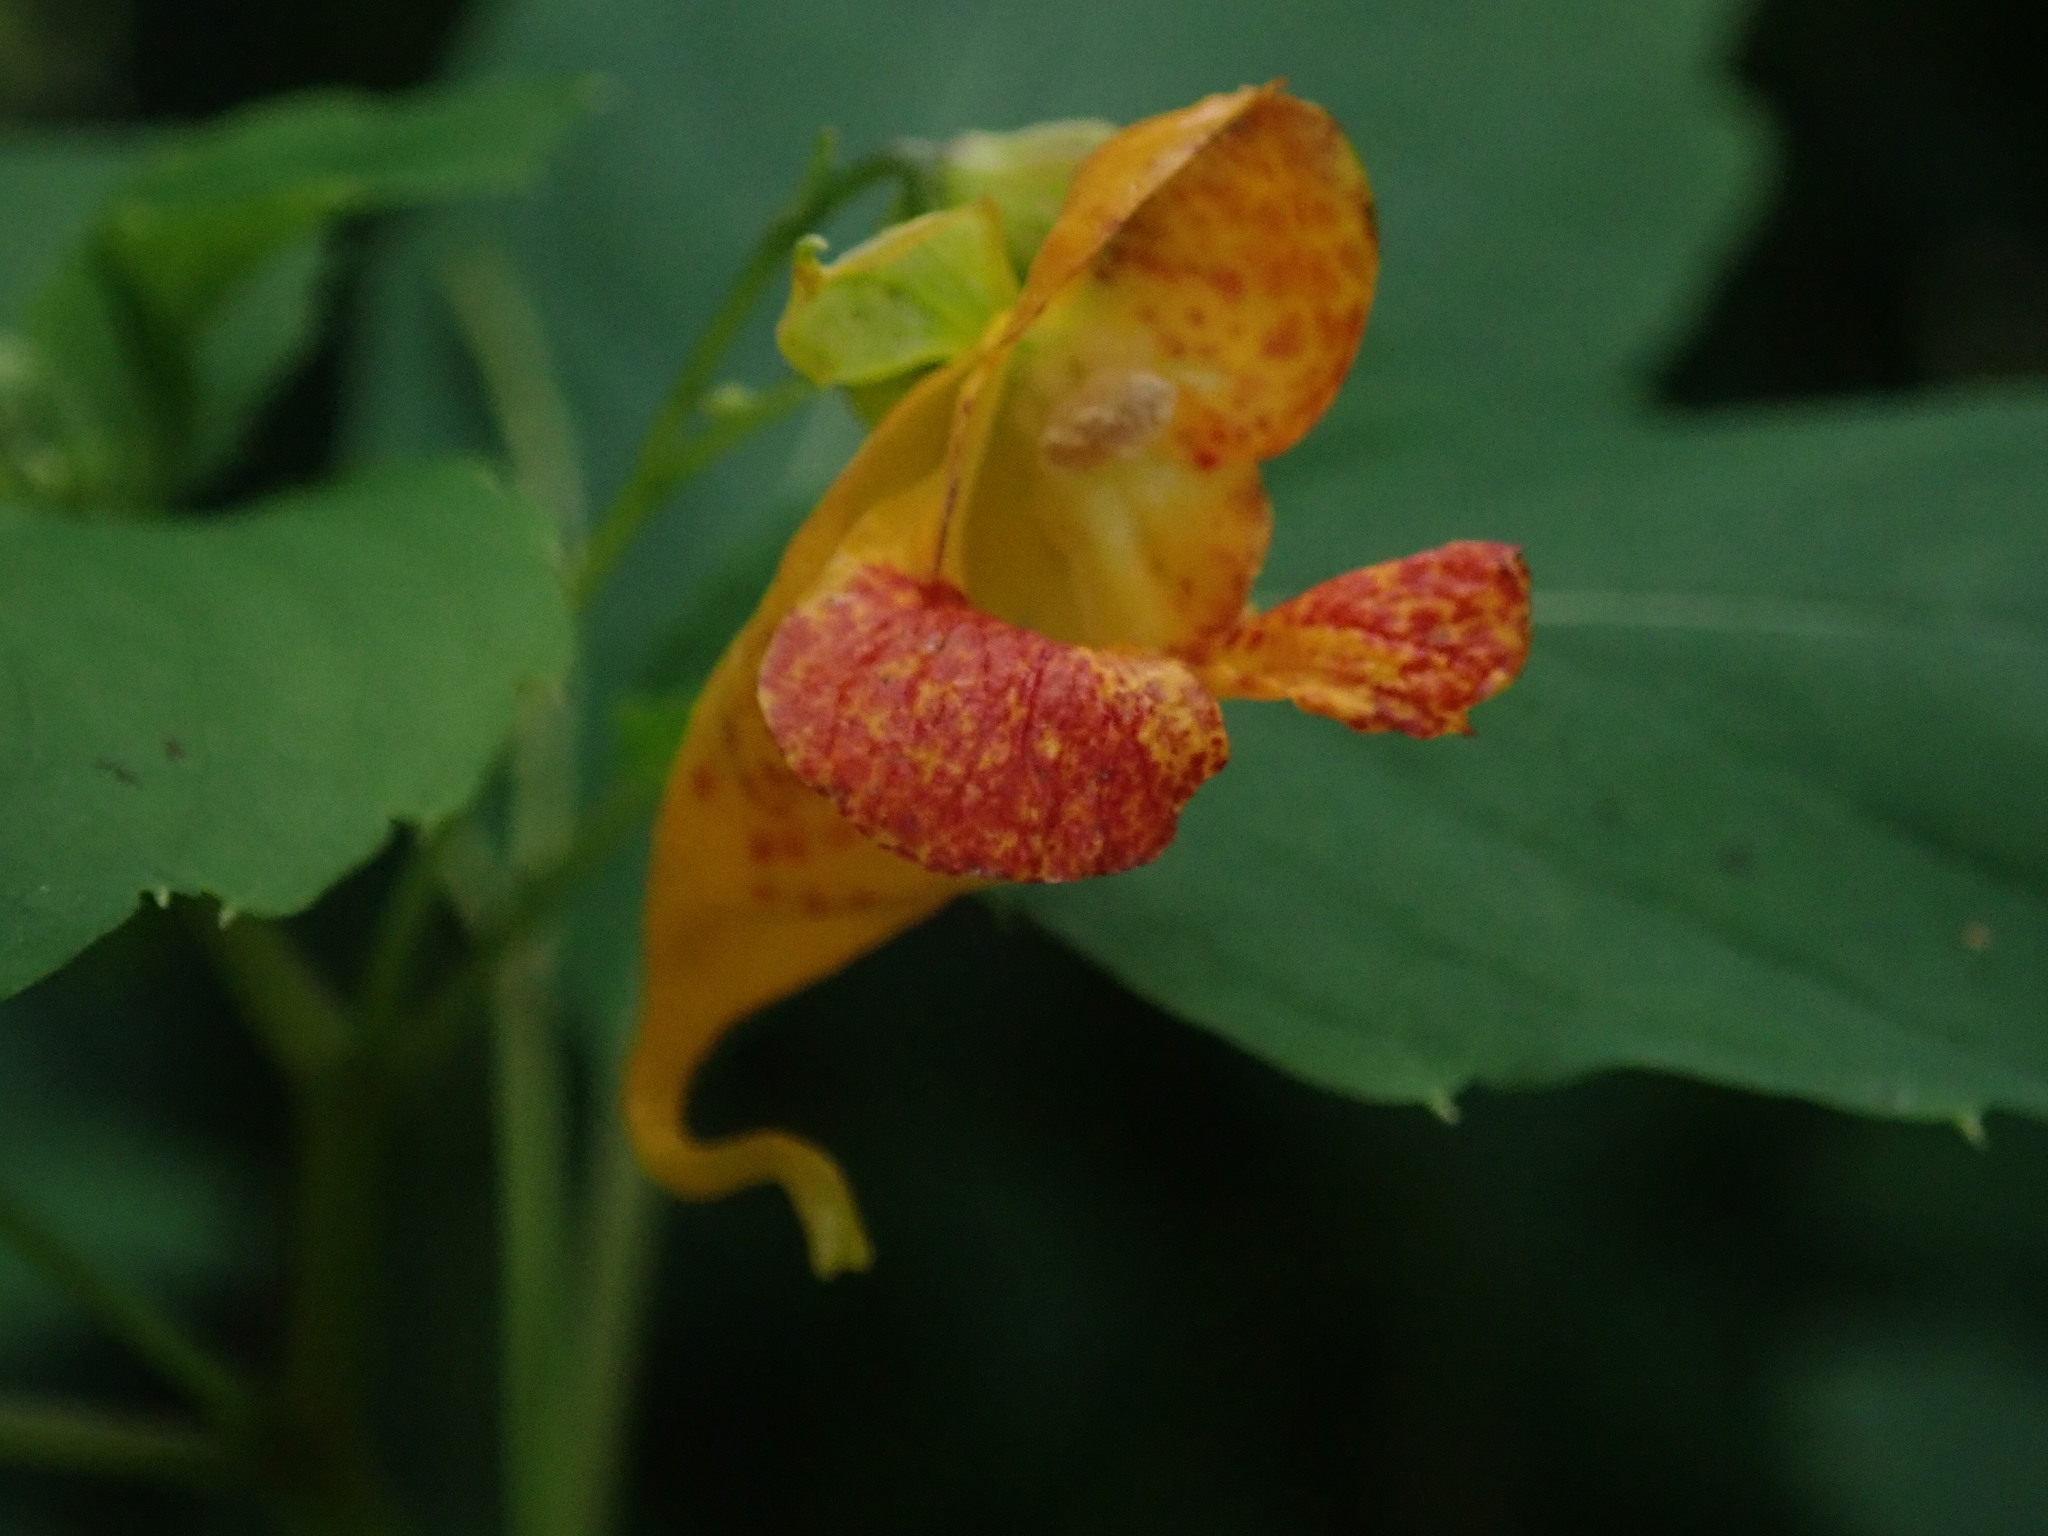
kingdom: Plantae
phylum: Tracheophyta
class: Magnoliopsida
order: Ericales
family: Balsaminaceae
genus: Impatiens
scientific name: Impatiens capensis
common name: Orange balsam
